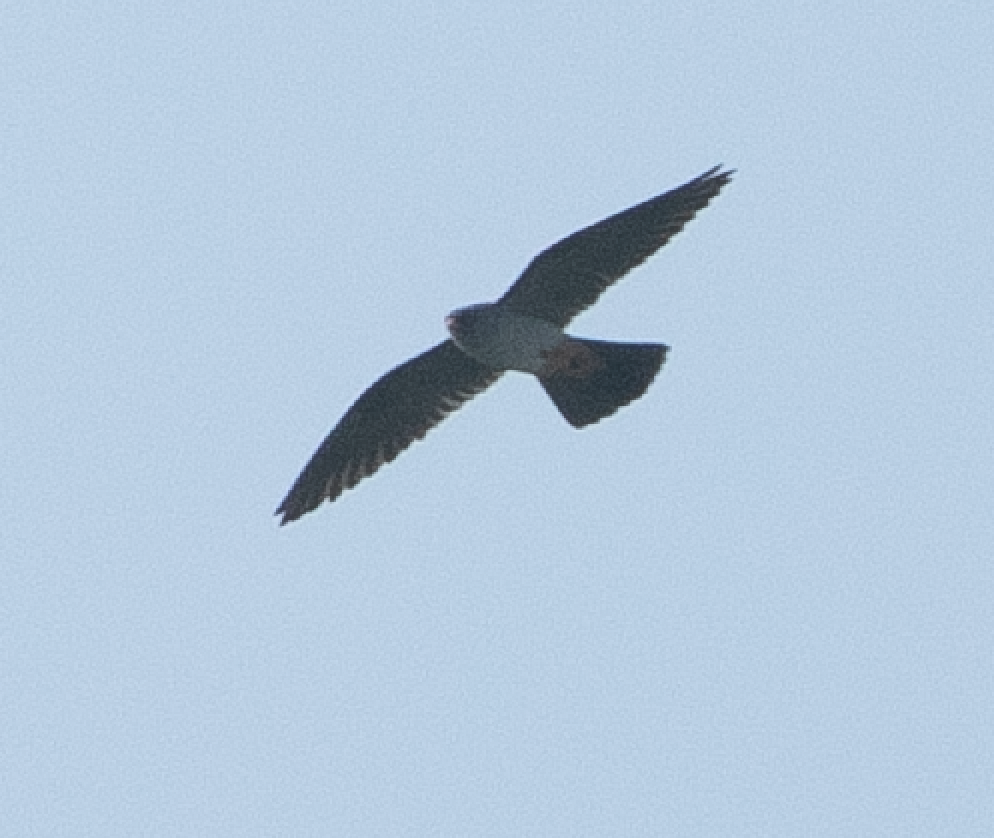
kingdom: Animalia
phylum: Chordata
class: Aves
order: Falconiformes
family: Falconidae
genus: Falco
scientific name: Falco vespertinus
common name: Red-footed falcon
